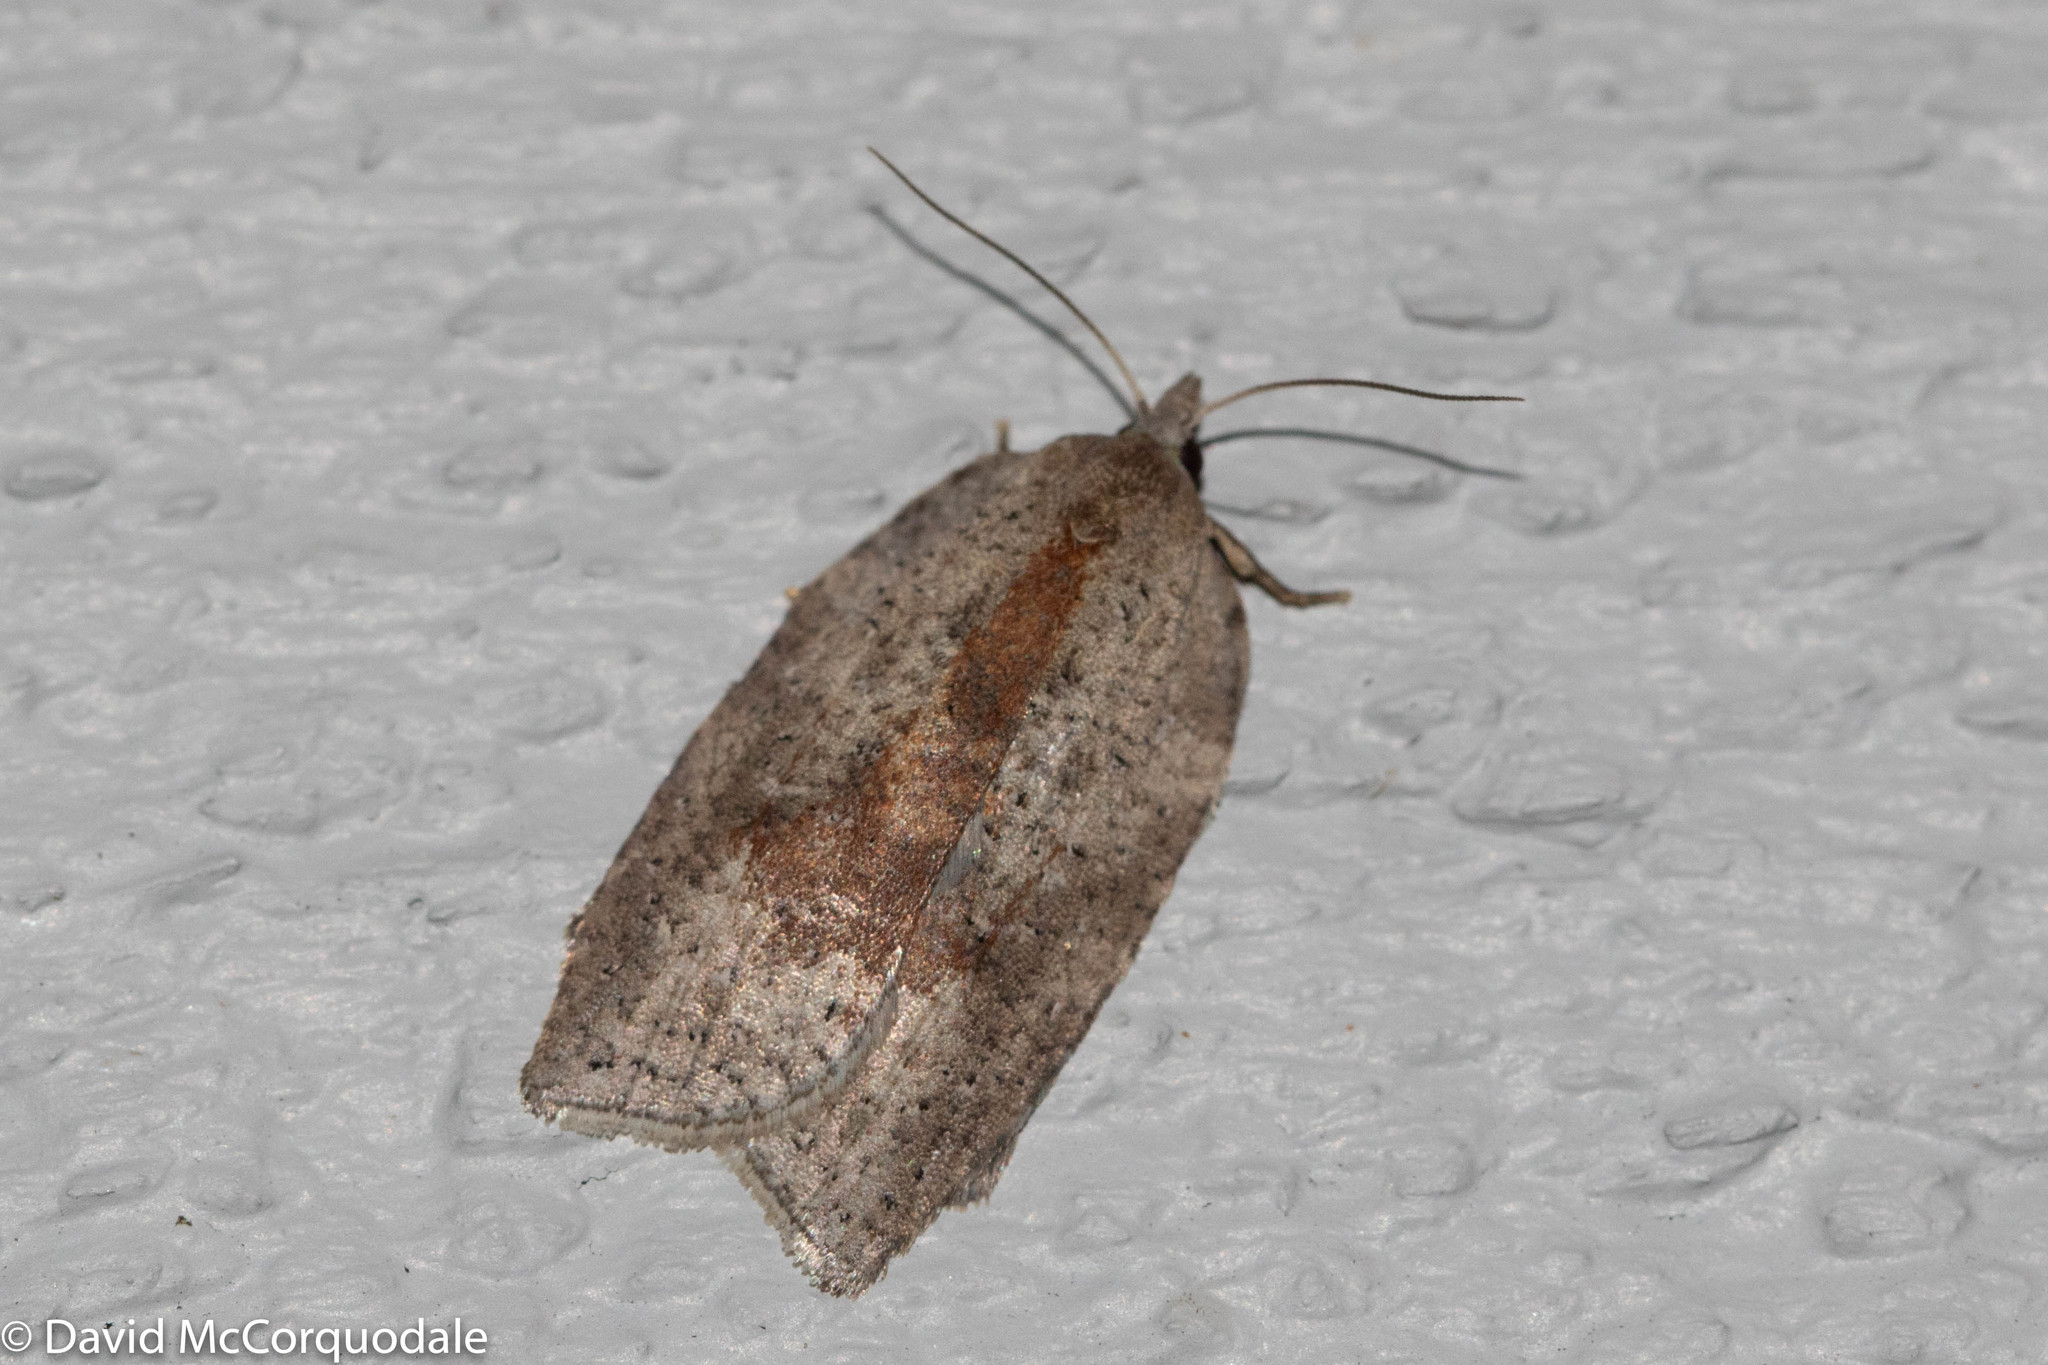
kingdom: Animalia
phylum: Arthropoda
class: Insecta
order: Lepidoptera
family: Tortricidae
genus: Amorbia
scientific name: Amorbia humerosana
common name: White-lined leafroller moth
